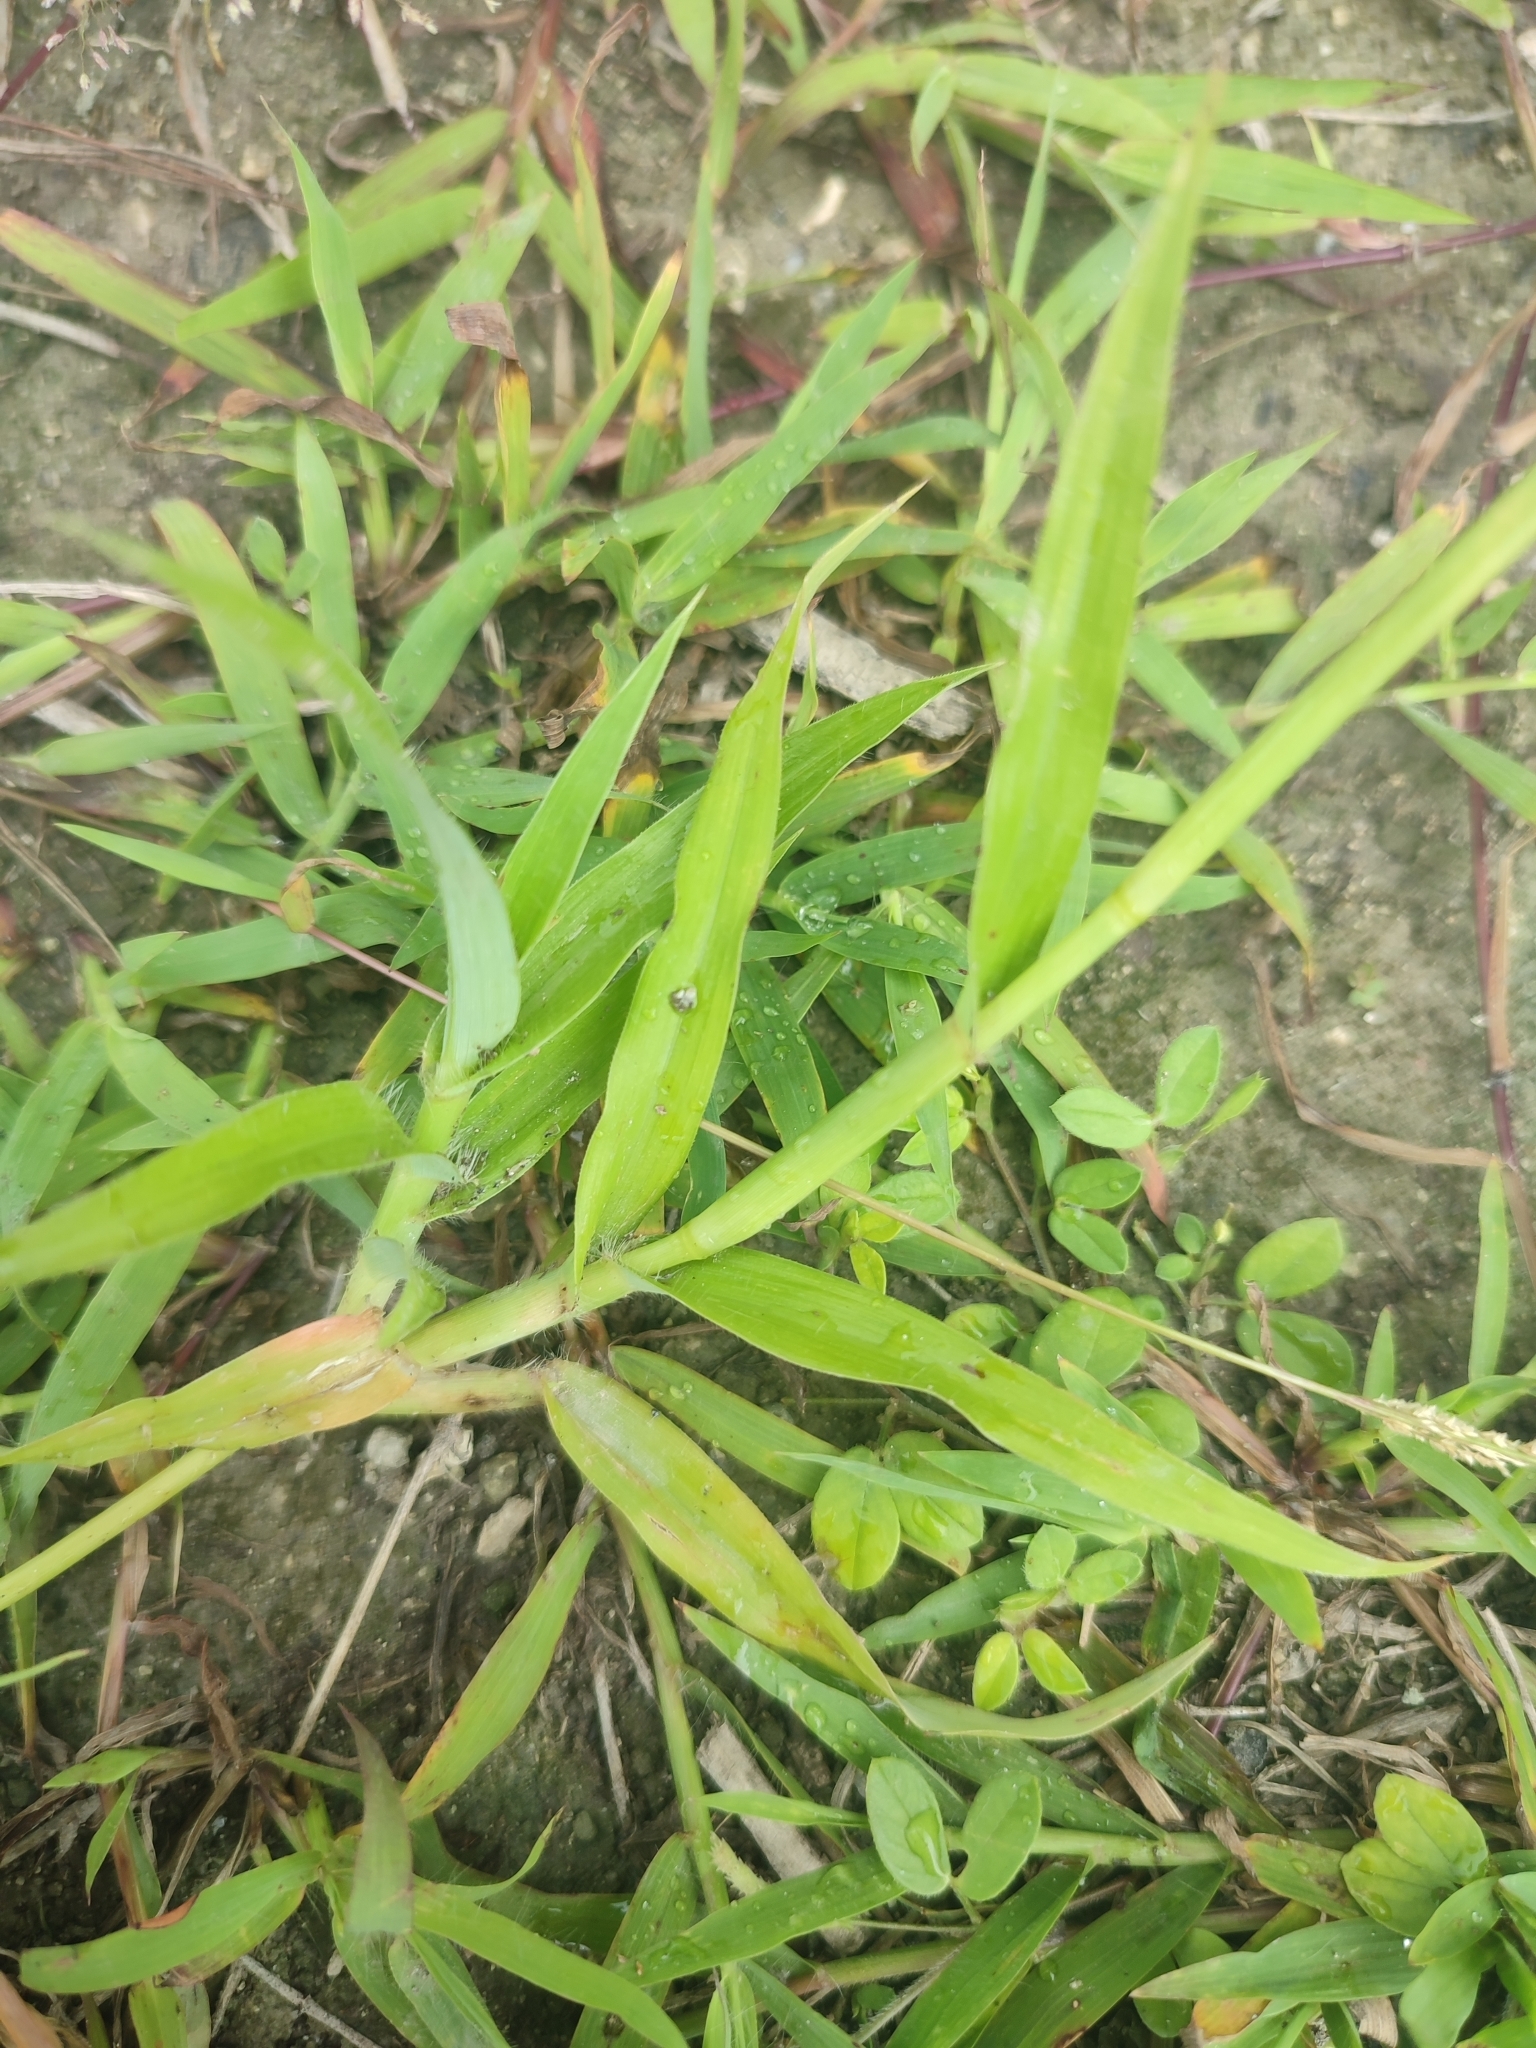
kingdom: Plantae
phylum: Tracheophyta
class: Liliopsida
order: Poales
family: Poaceae
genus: Dactyloctenium
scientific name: Dactyloctenium ctenoides
